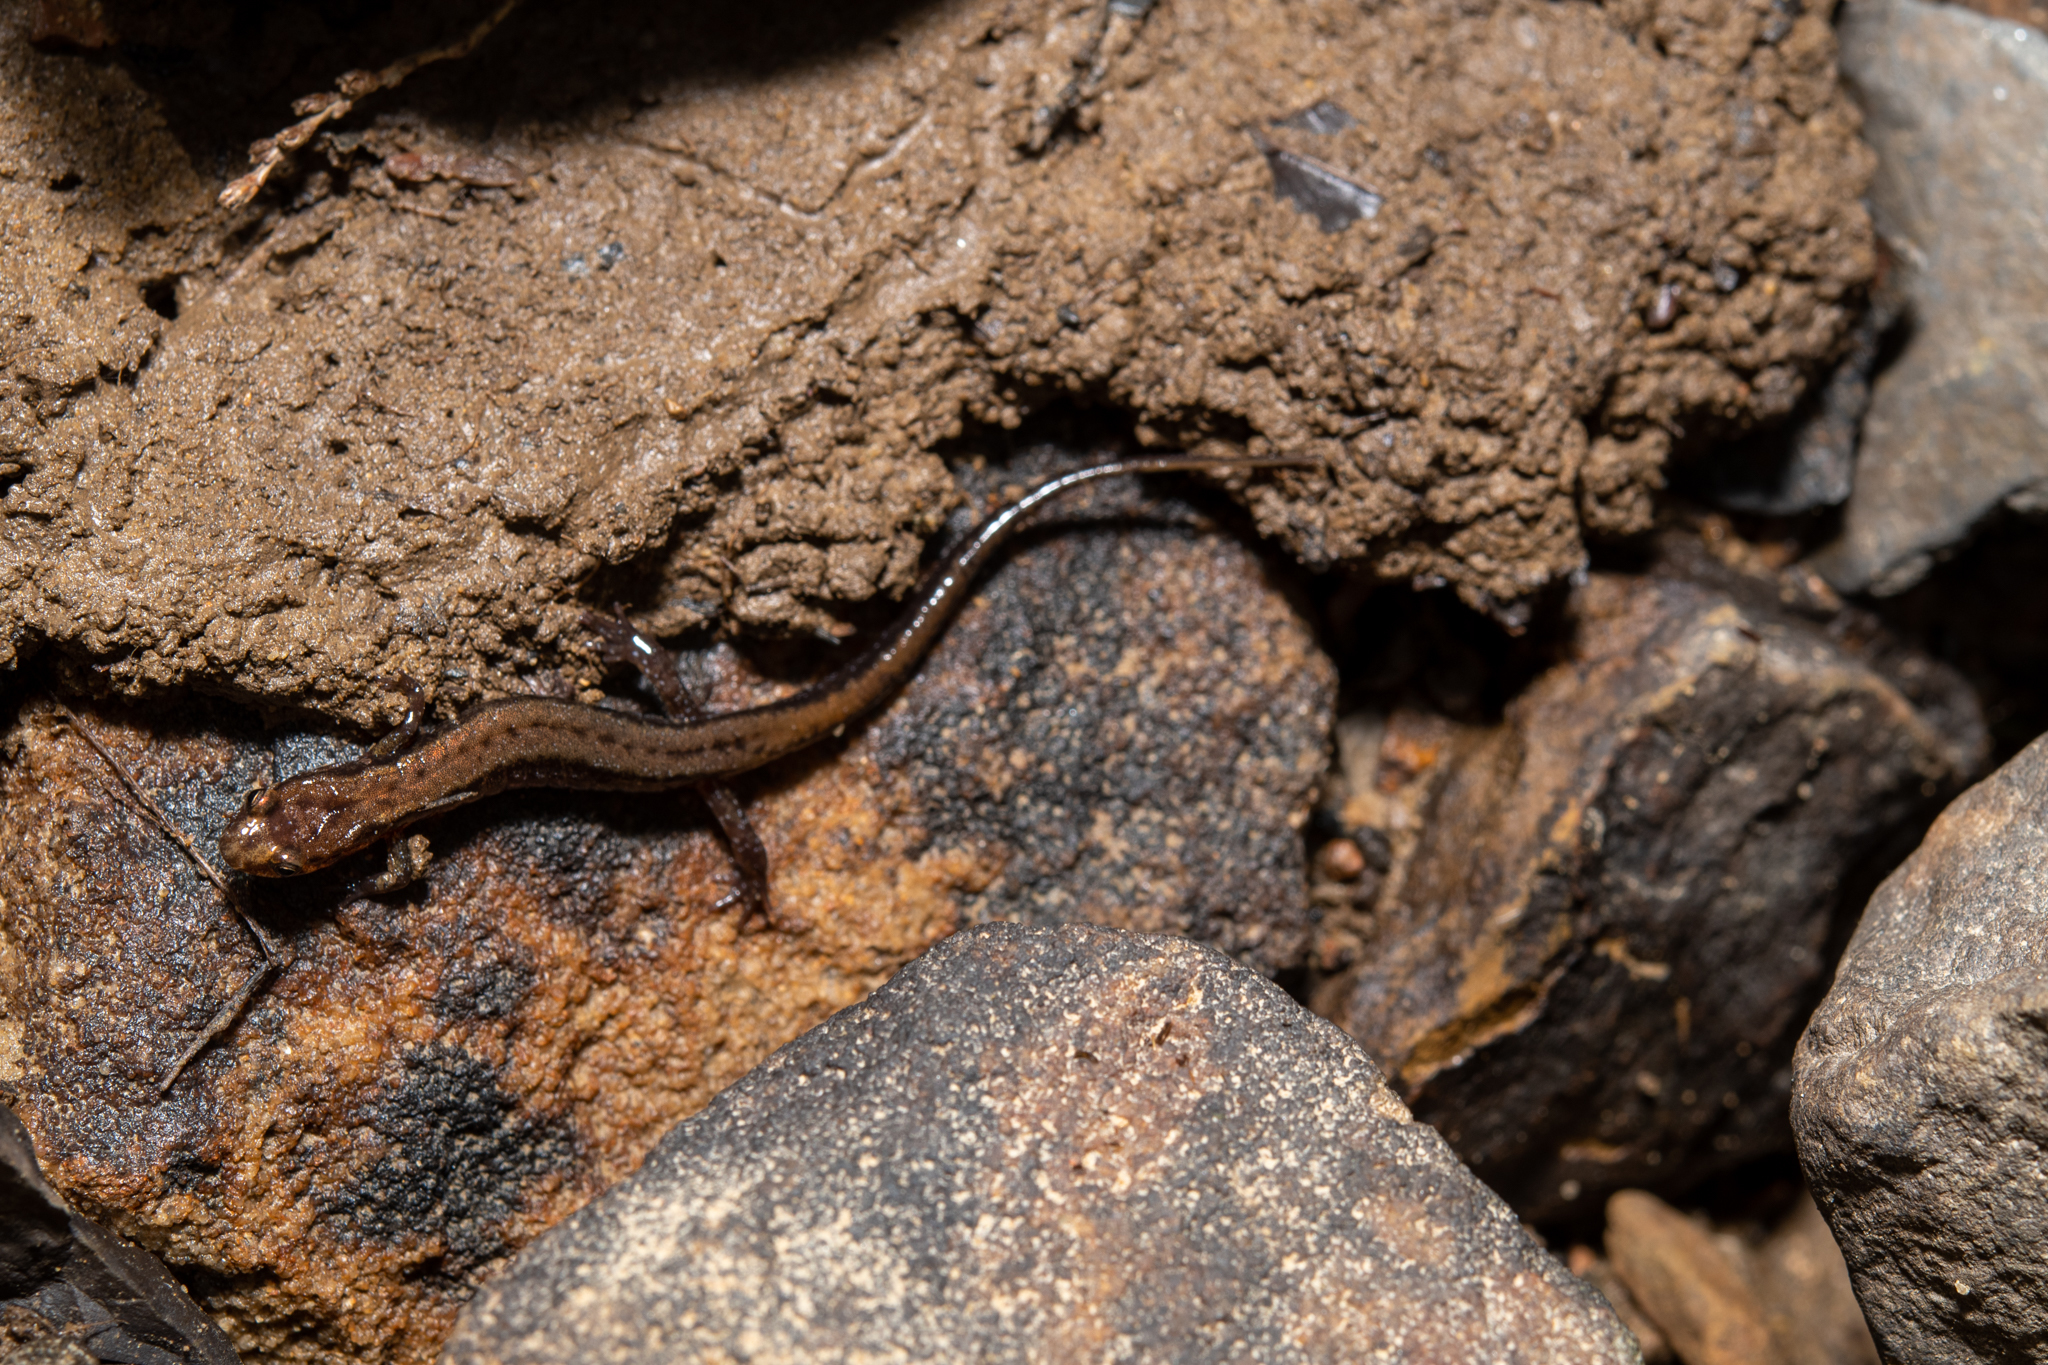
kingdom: Animalia
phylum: Chordata
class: Amphibia
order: Caudata
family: Plethodontidae
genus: Desmognathus
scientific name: Desmognathus ochrophaeus
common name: Allegheny mountain dusky salamander
